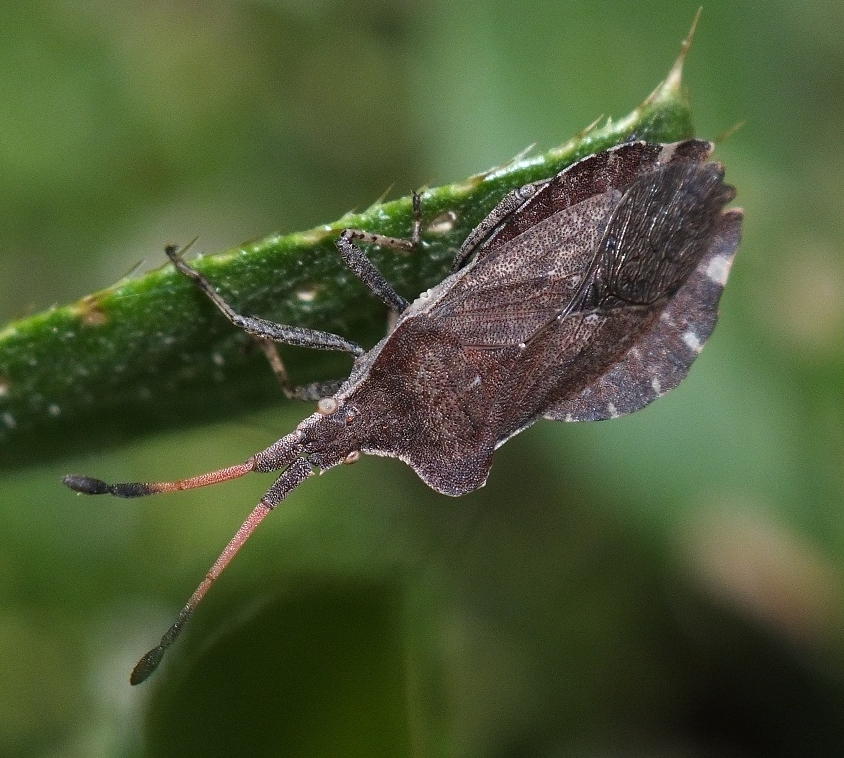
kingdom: Animalia
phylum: Arthropoda
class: Insecta
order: Hemiptera
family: Coreidae
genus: Enoplops
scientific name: Enoplops scapha
